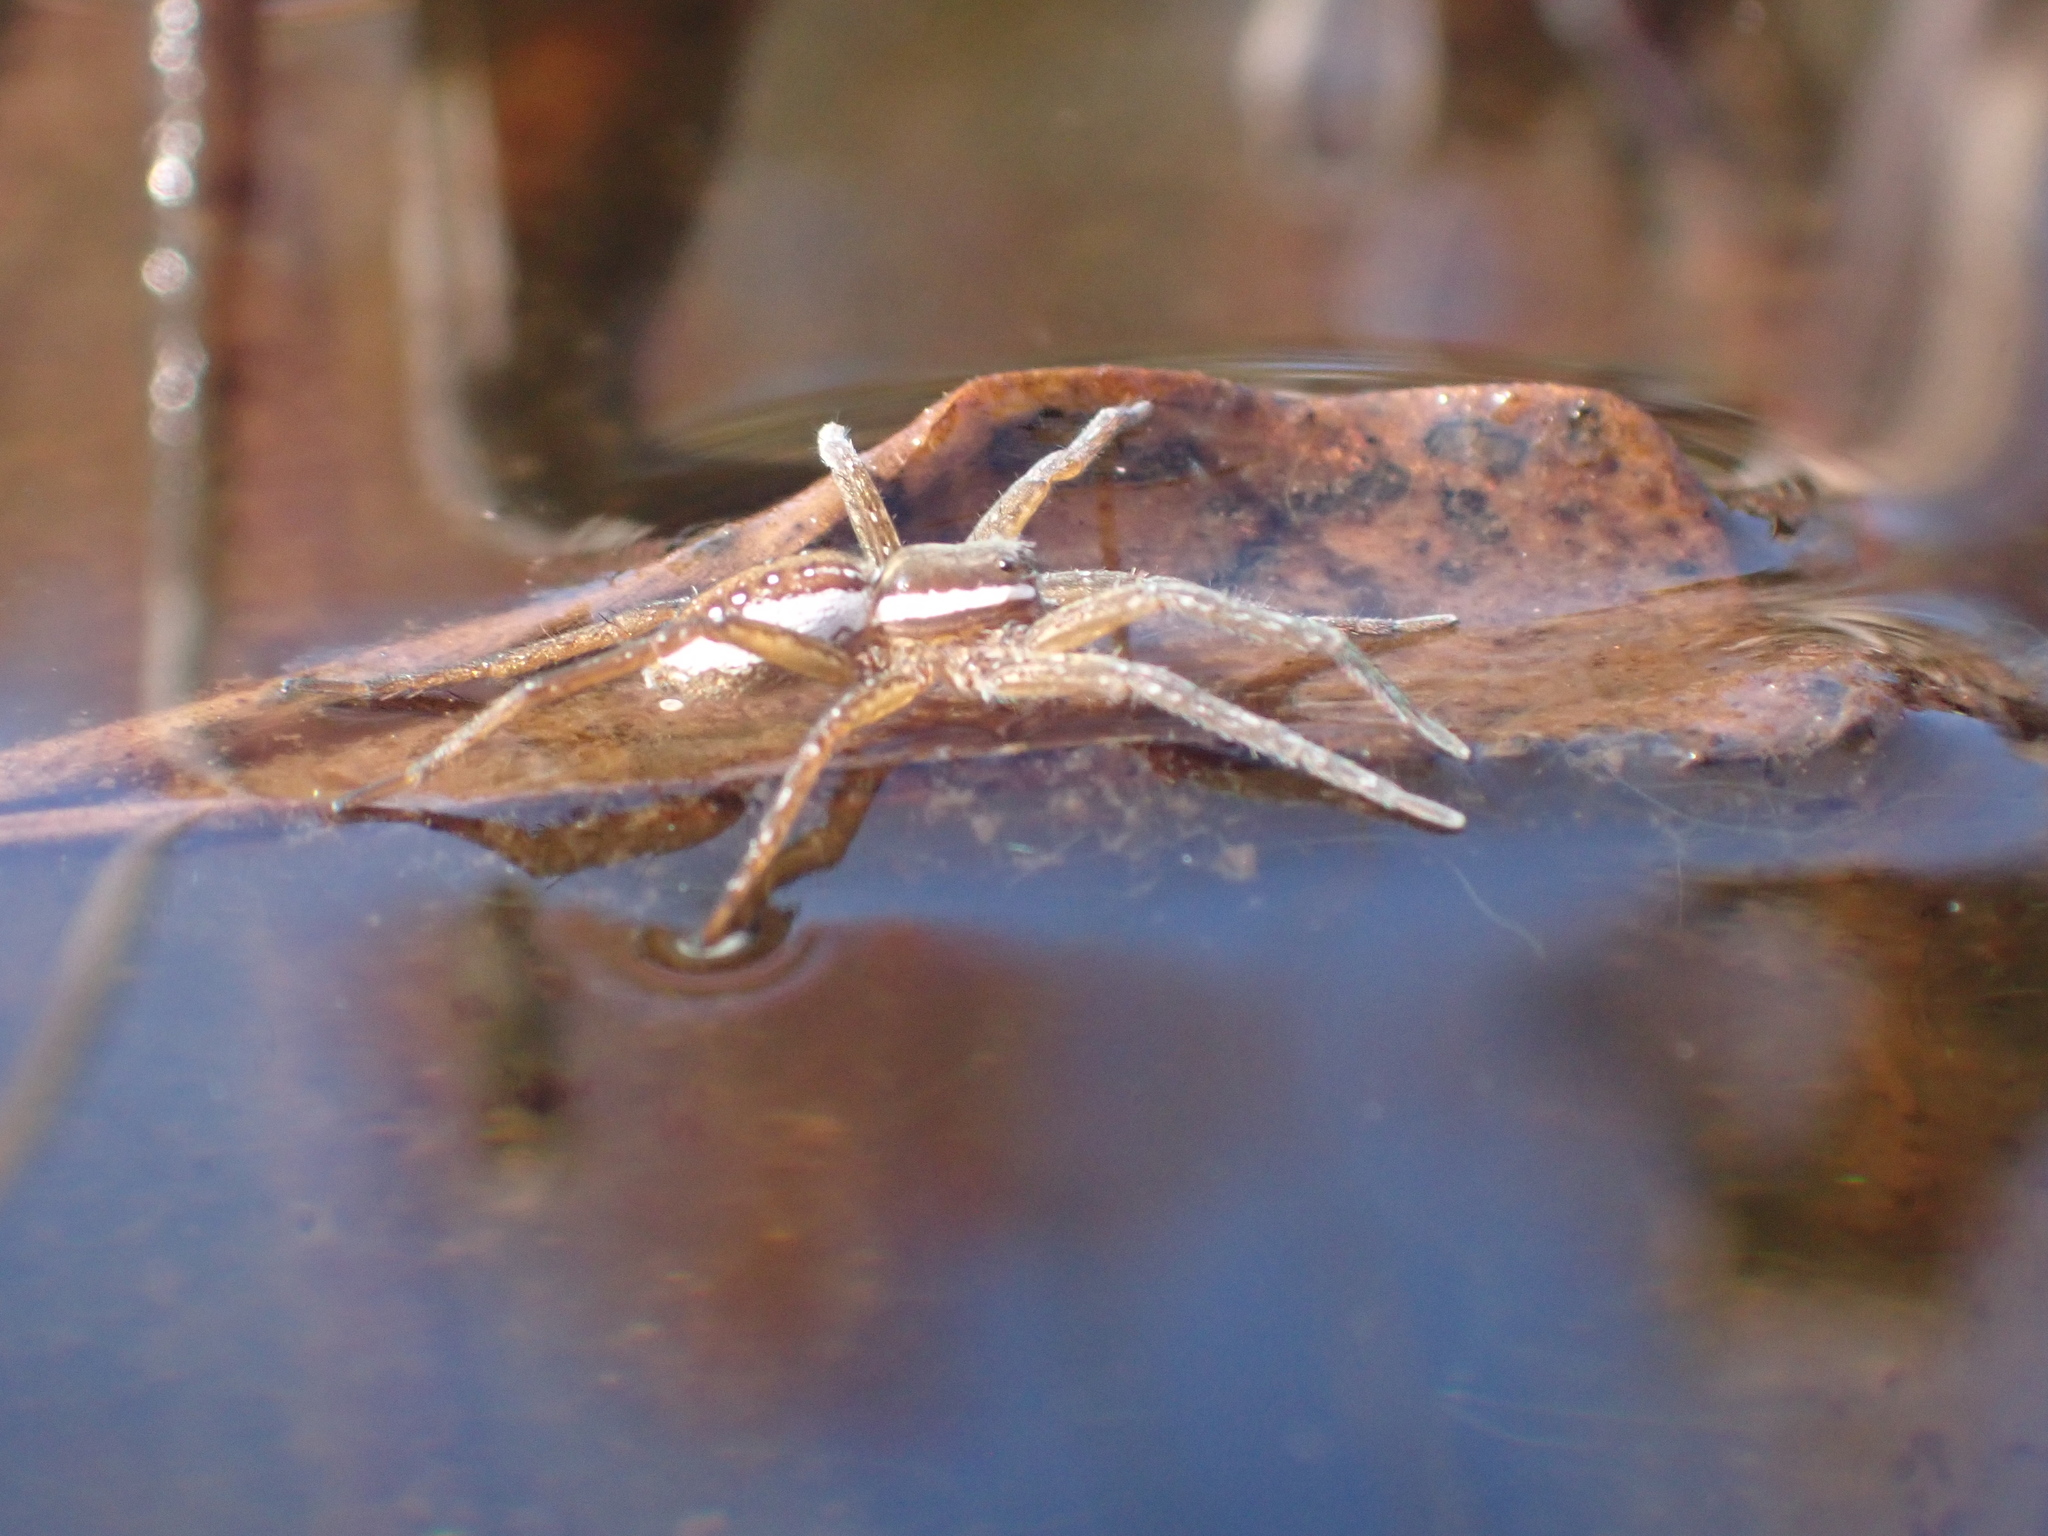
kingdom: Animalia
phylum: Arthropoda
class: Arachnida
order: Araneae
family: Pisauridae
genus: Dolomedes
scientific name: Dolomedes triton
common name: Six-spotted fishing spider
